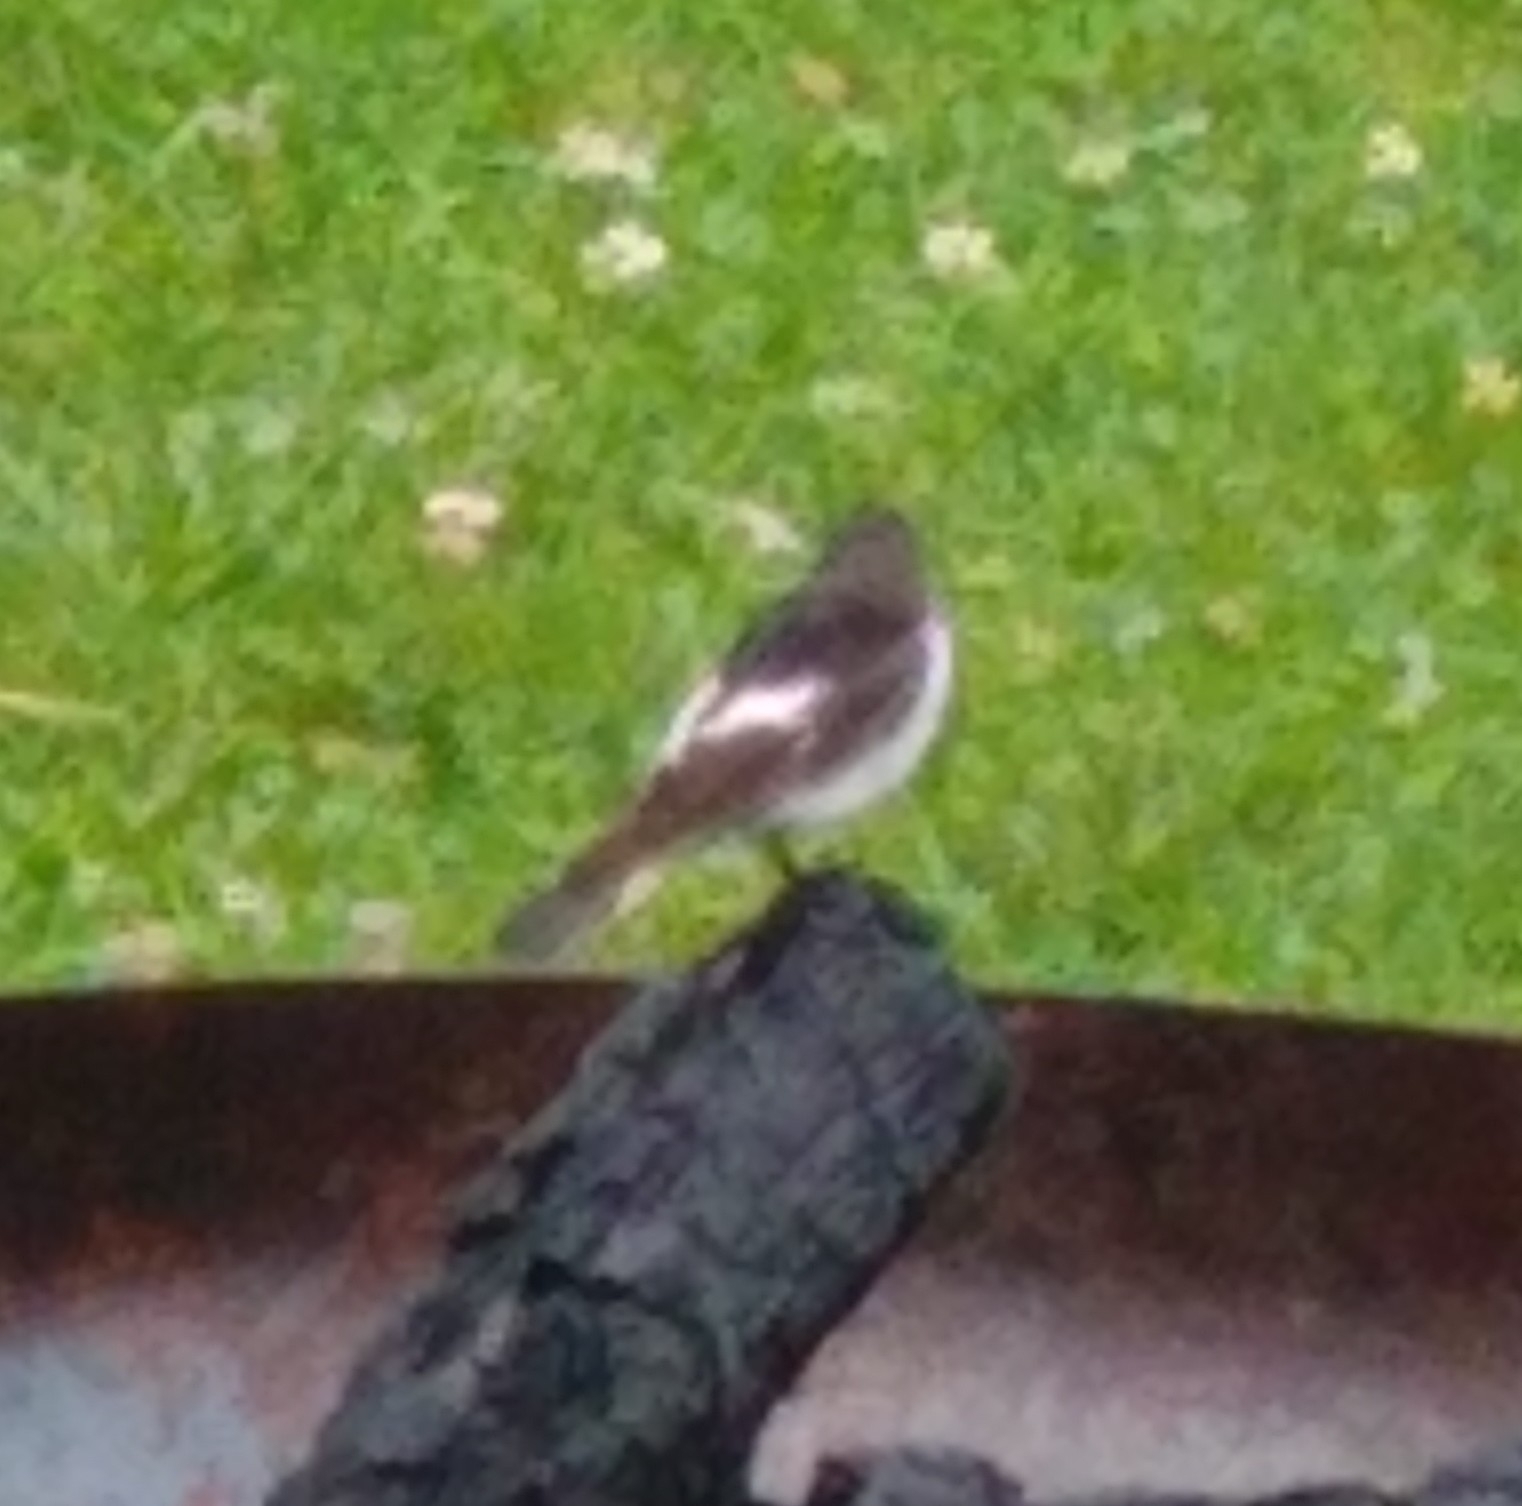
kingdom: Animalia
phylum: Chordata
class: Aves
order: Passeriformes
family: Muscicapidae
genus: Ficedula
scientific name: Ficedula hypoleuca
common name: European pied flycatcher
